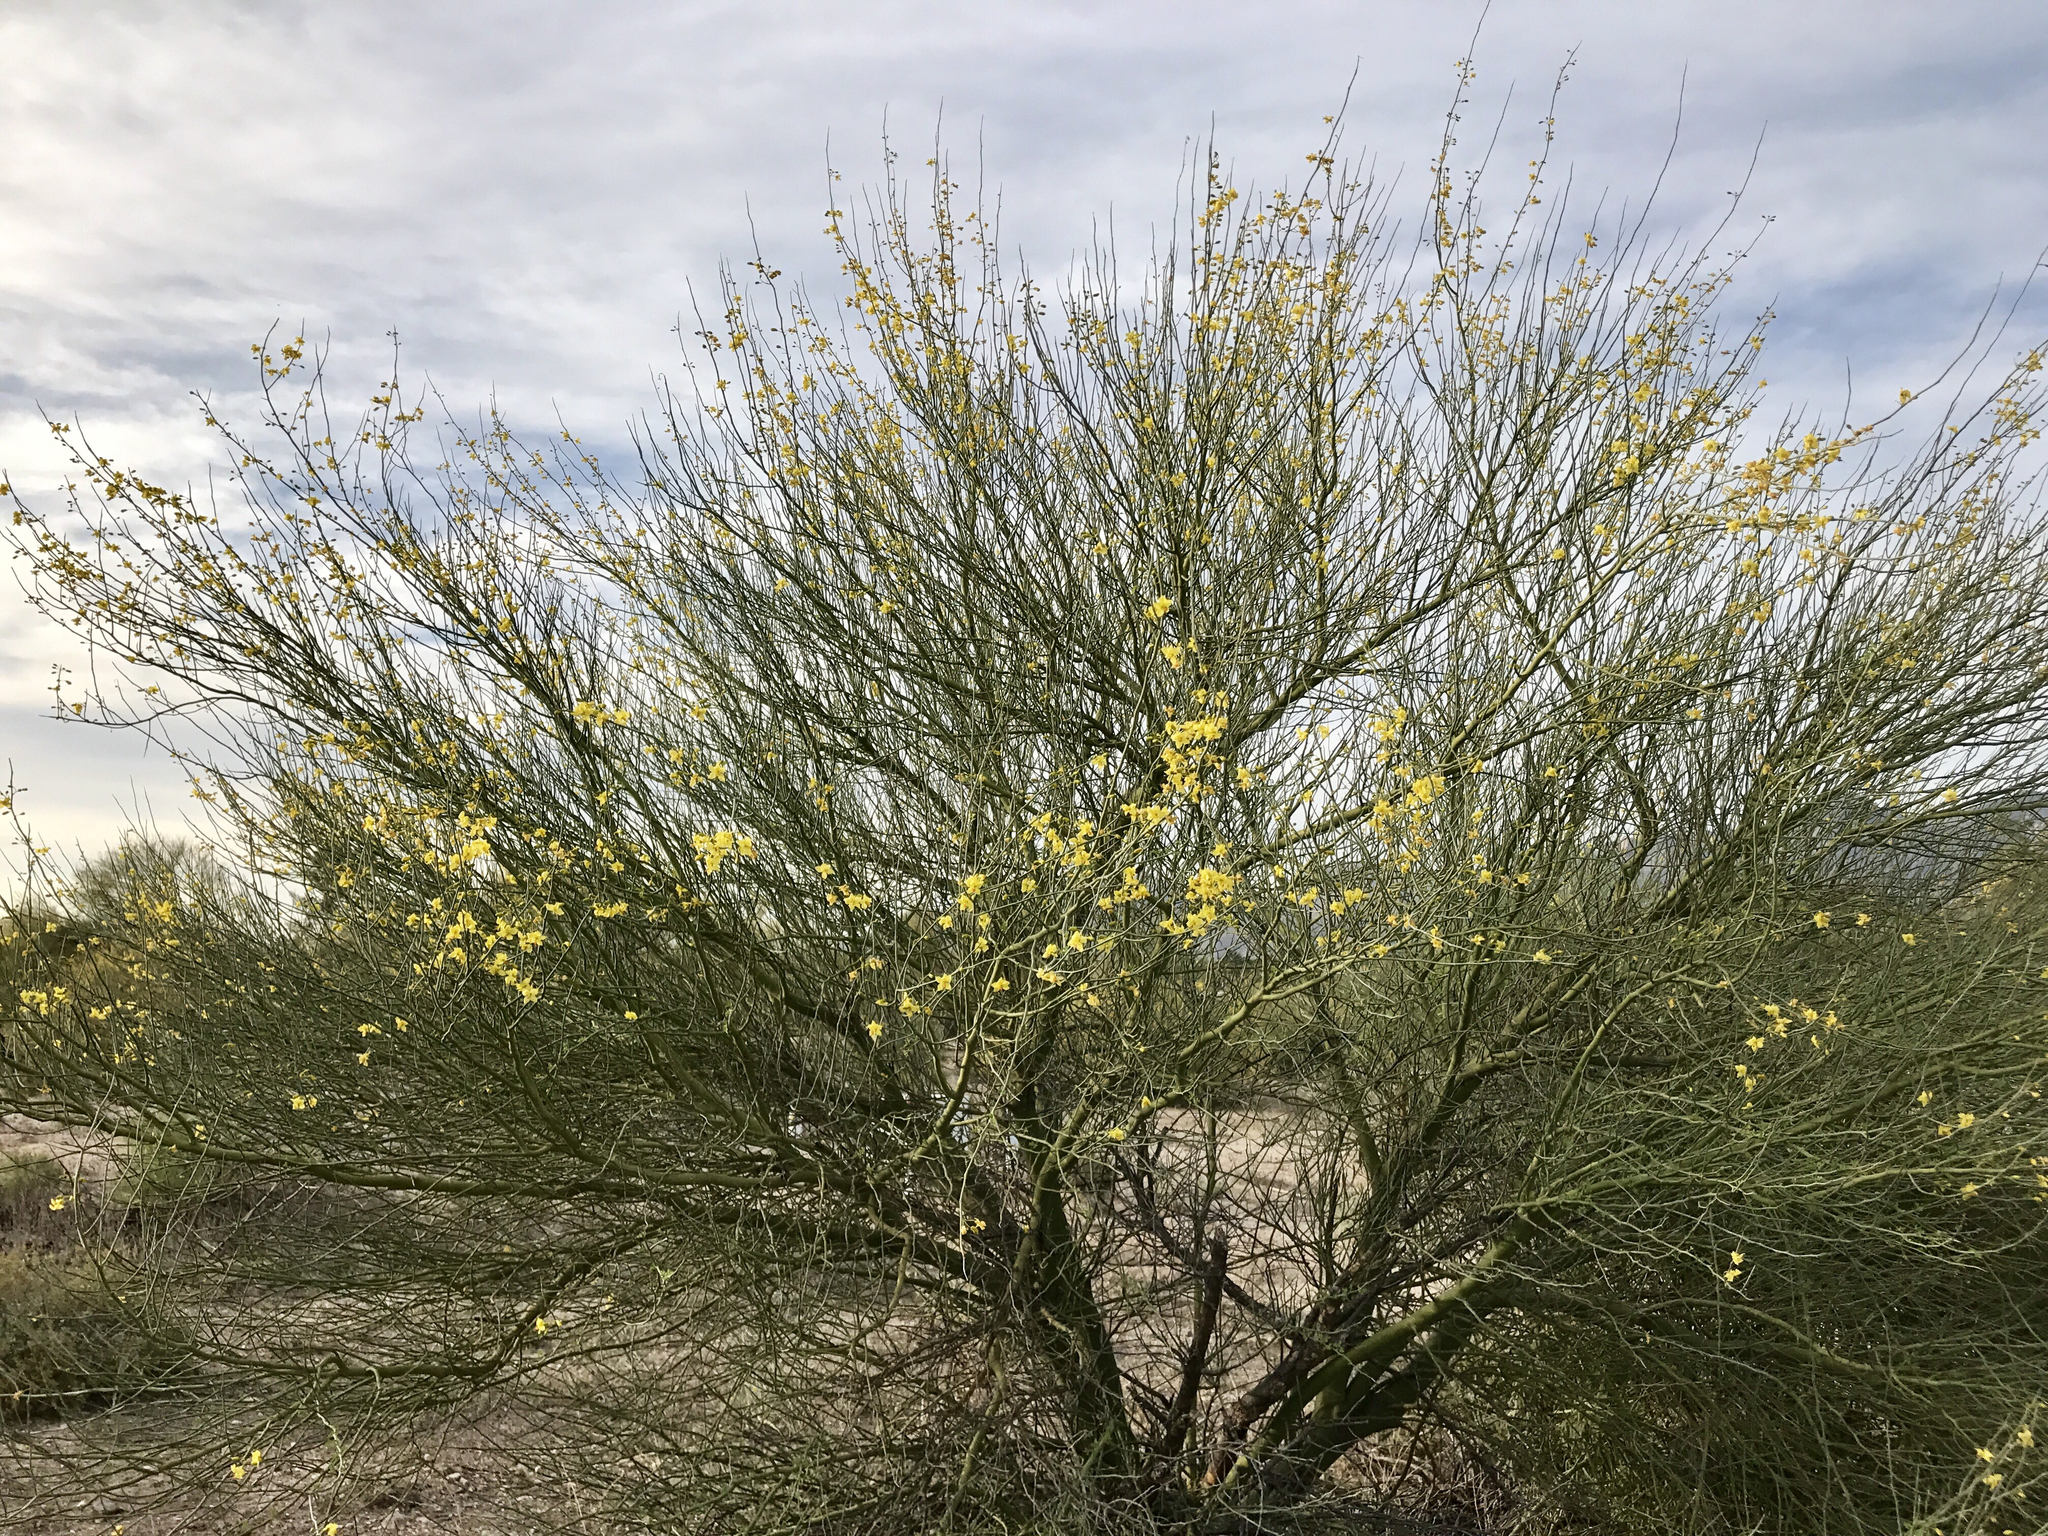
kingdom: Plantae
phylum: Tracheophyta
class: Magnoliopsida
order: Fabales
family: Fabaceae
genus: Parkinsonia
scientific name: Parkinsonia florida
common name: Blue paloverde
